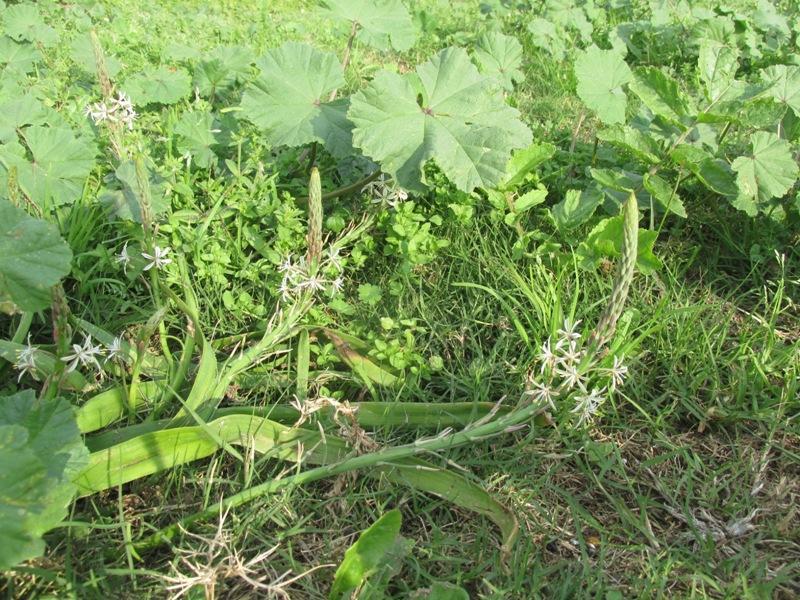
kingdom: Plantae
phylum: Tracheophyta
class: Liliopsida
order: Asparagales
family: Asphodelaceae
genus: Trachyandra
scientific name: Trachyandra ciliata
